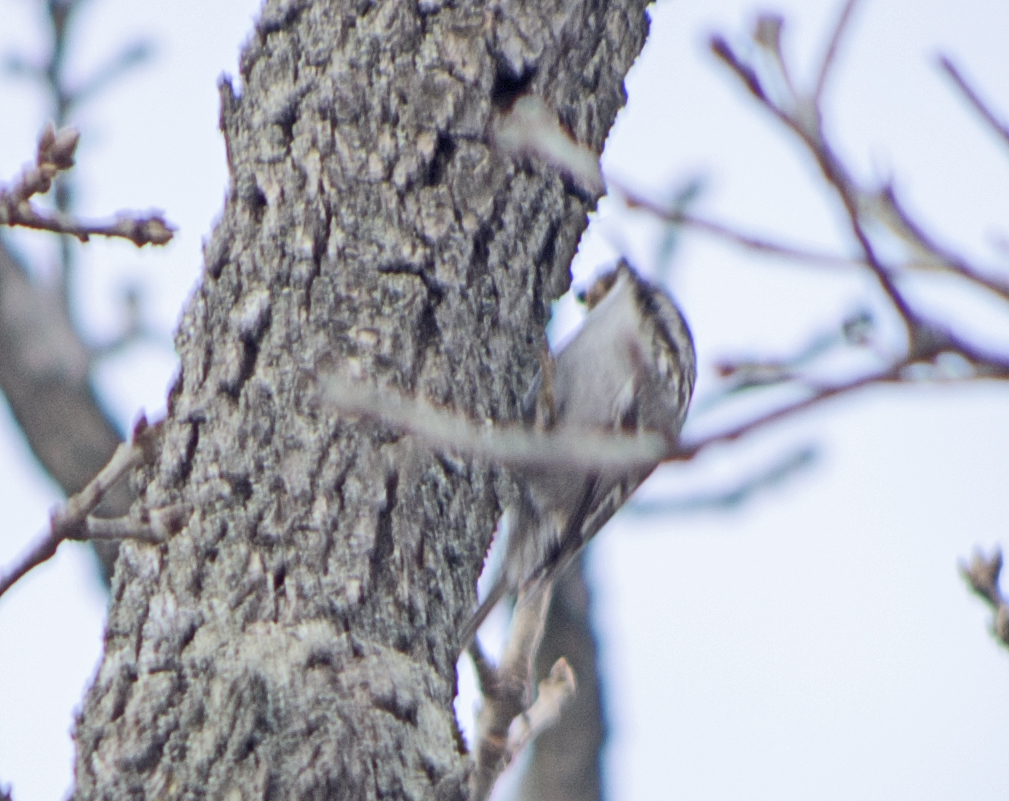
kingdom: Animalia
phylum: Chordata
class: Aves
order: Passeriformes
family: Certhiidae
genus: Certhia
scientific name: Certhia
